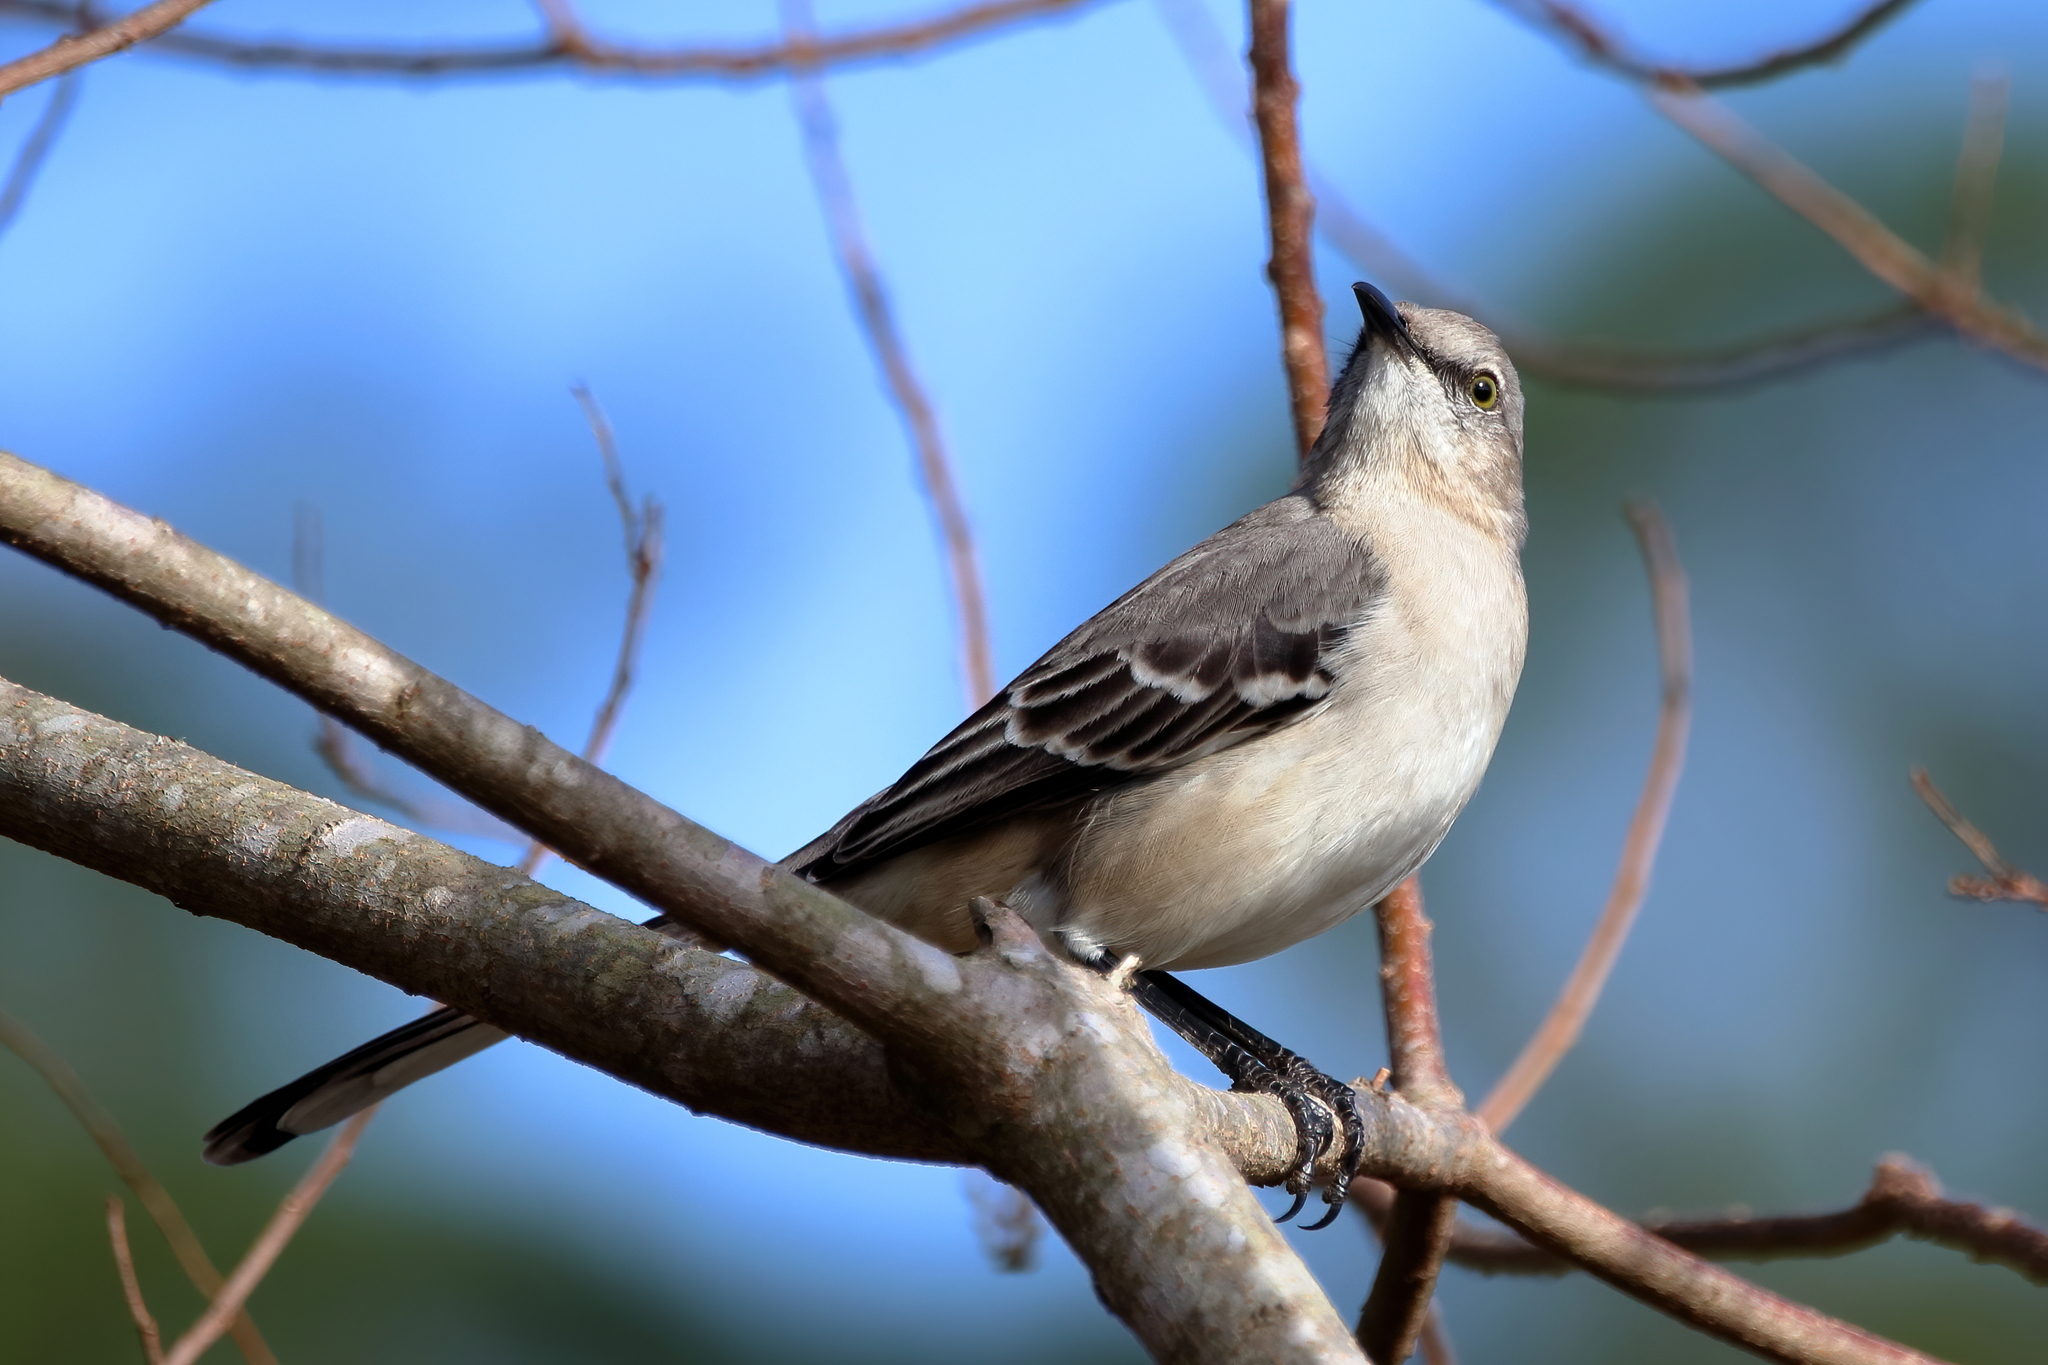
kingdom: Animalia
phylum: Chordata
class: Aves
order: Passeriformes
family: Mimidae
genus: Mimus
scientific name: Mimus polyglottos
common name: Northern mockingbird
